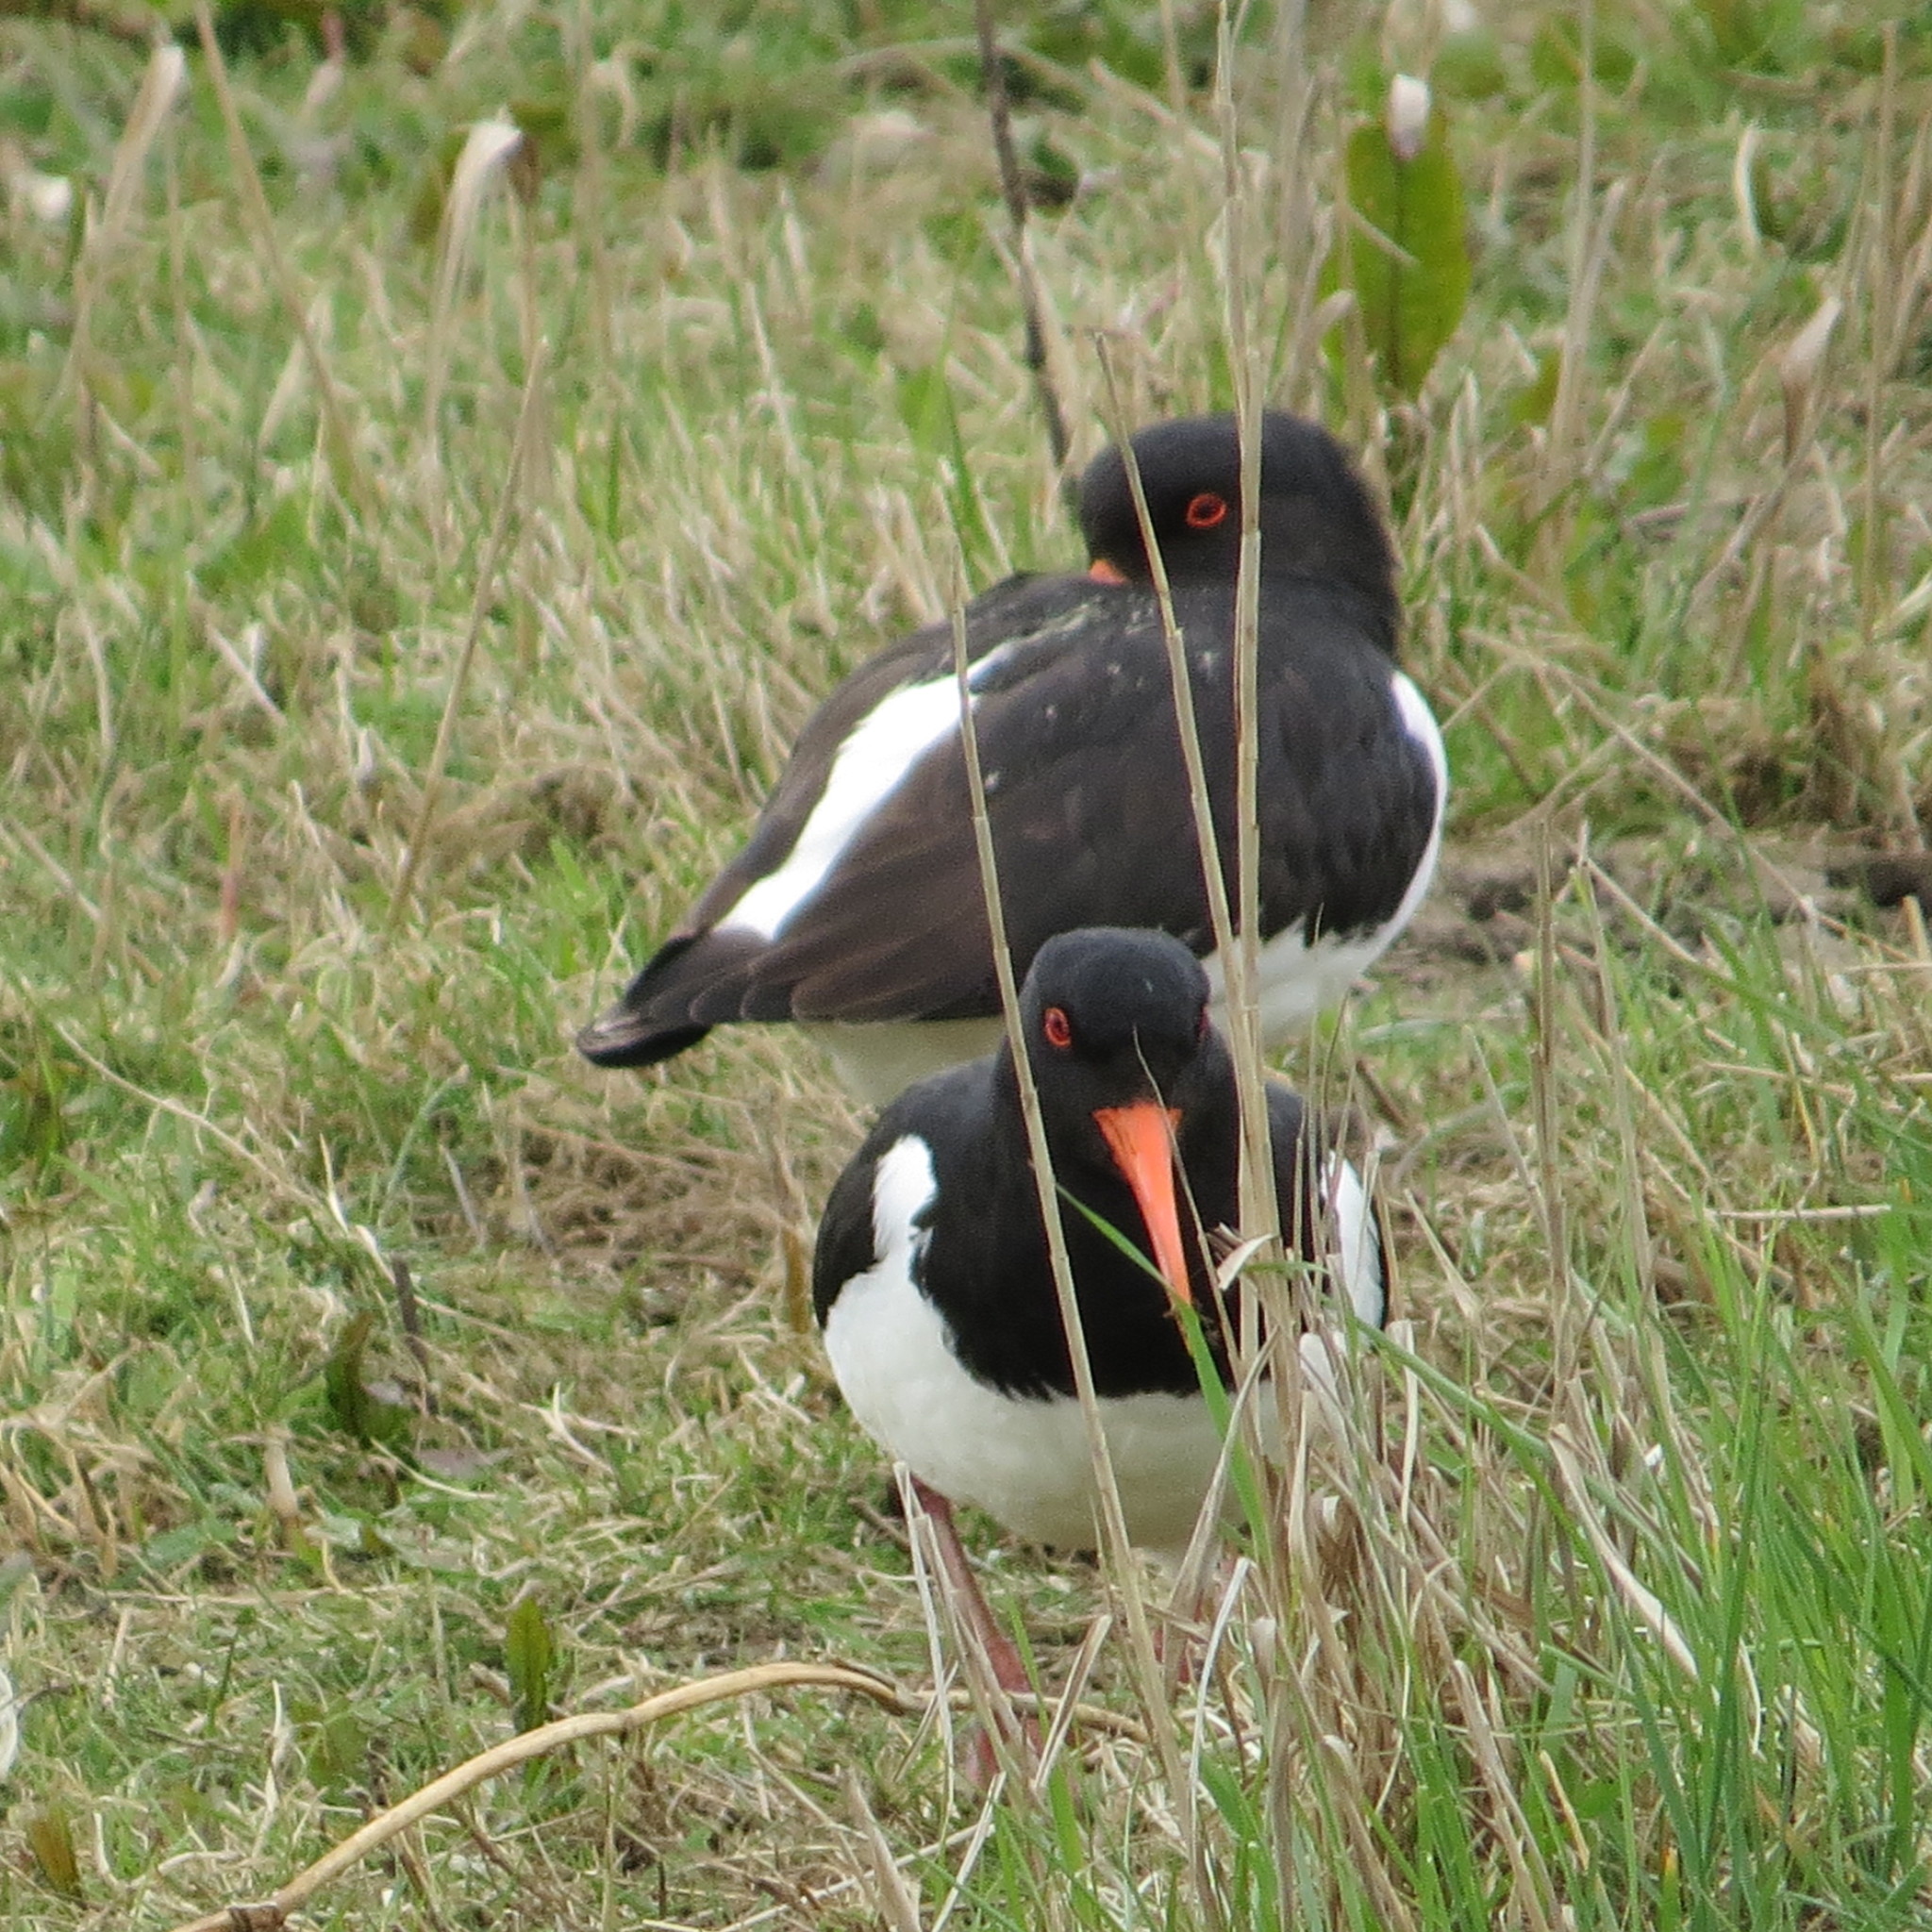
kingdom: Animalia
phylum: Chordata
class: Aves
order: Charadriiformes
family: Haematopodidae
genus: Haematopus
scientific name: Haematopus ostralegus
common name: Eurasian oystercatcher
